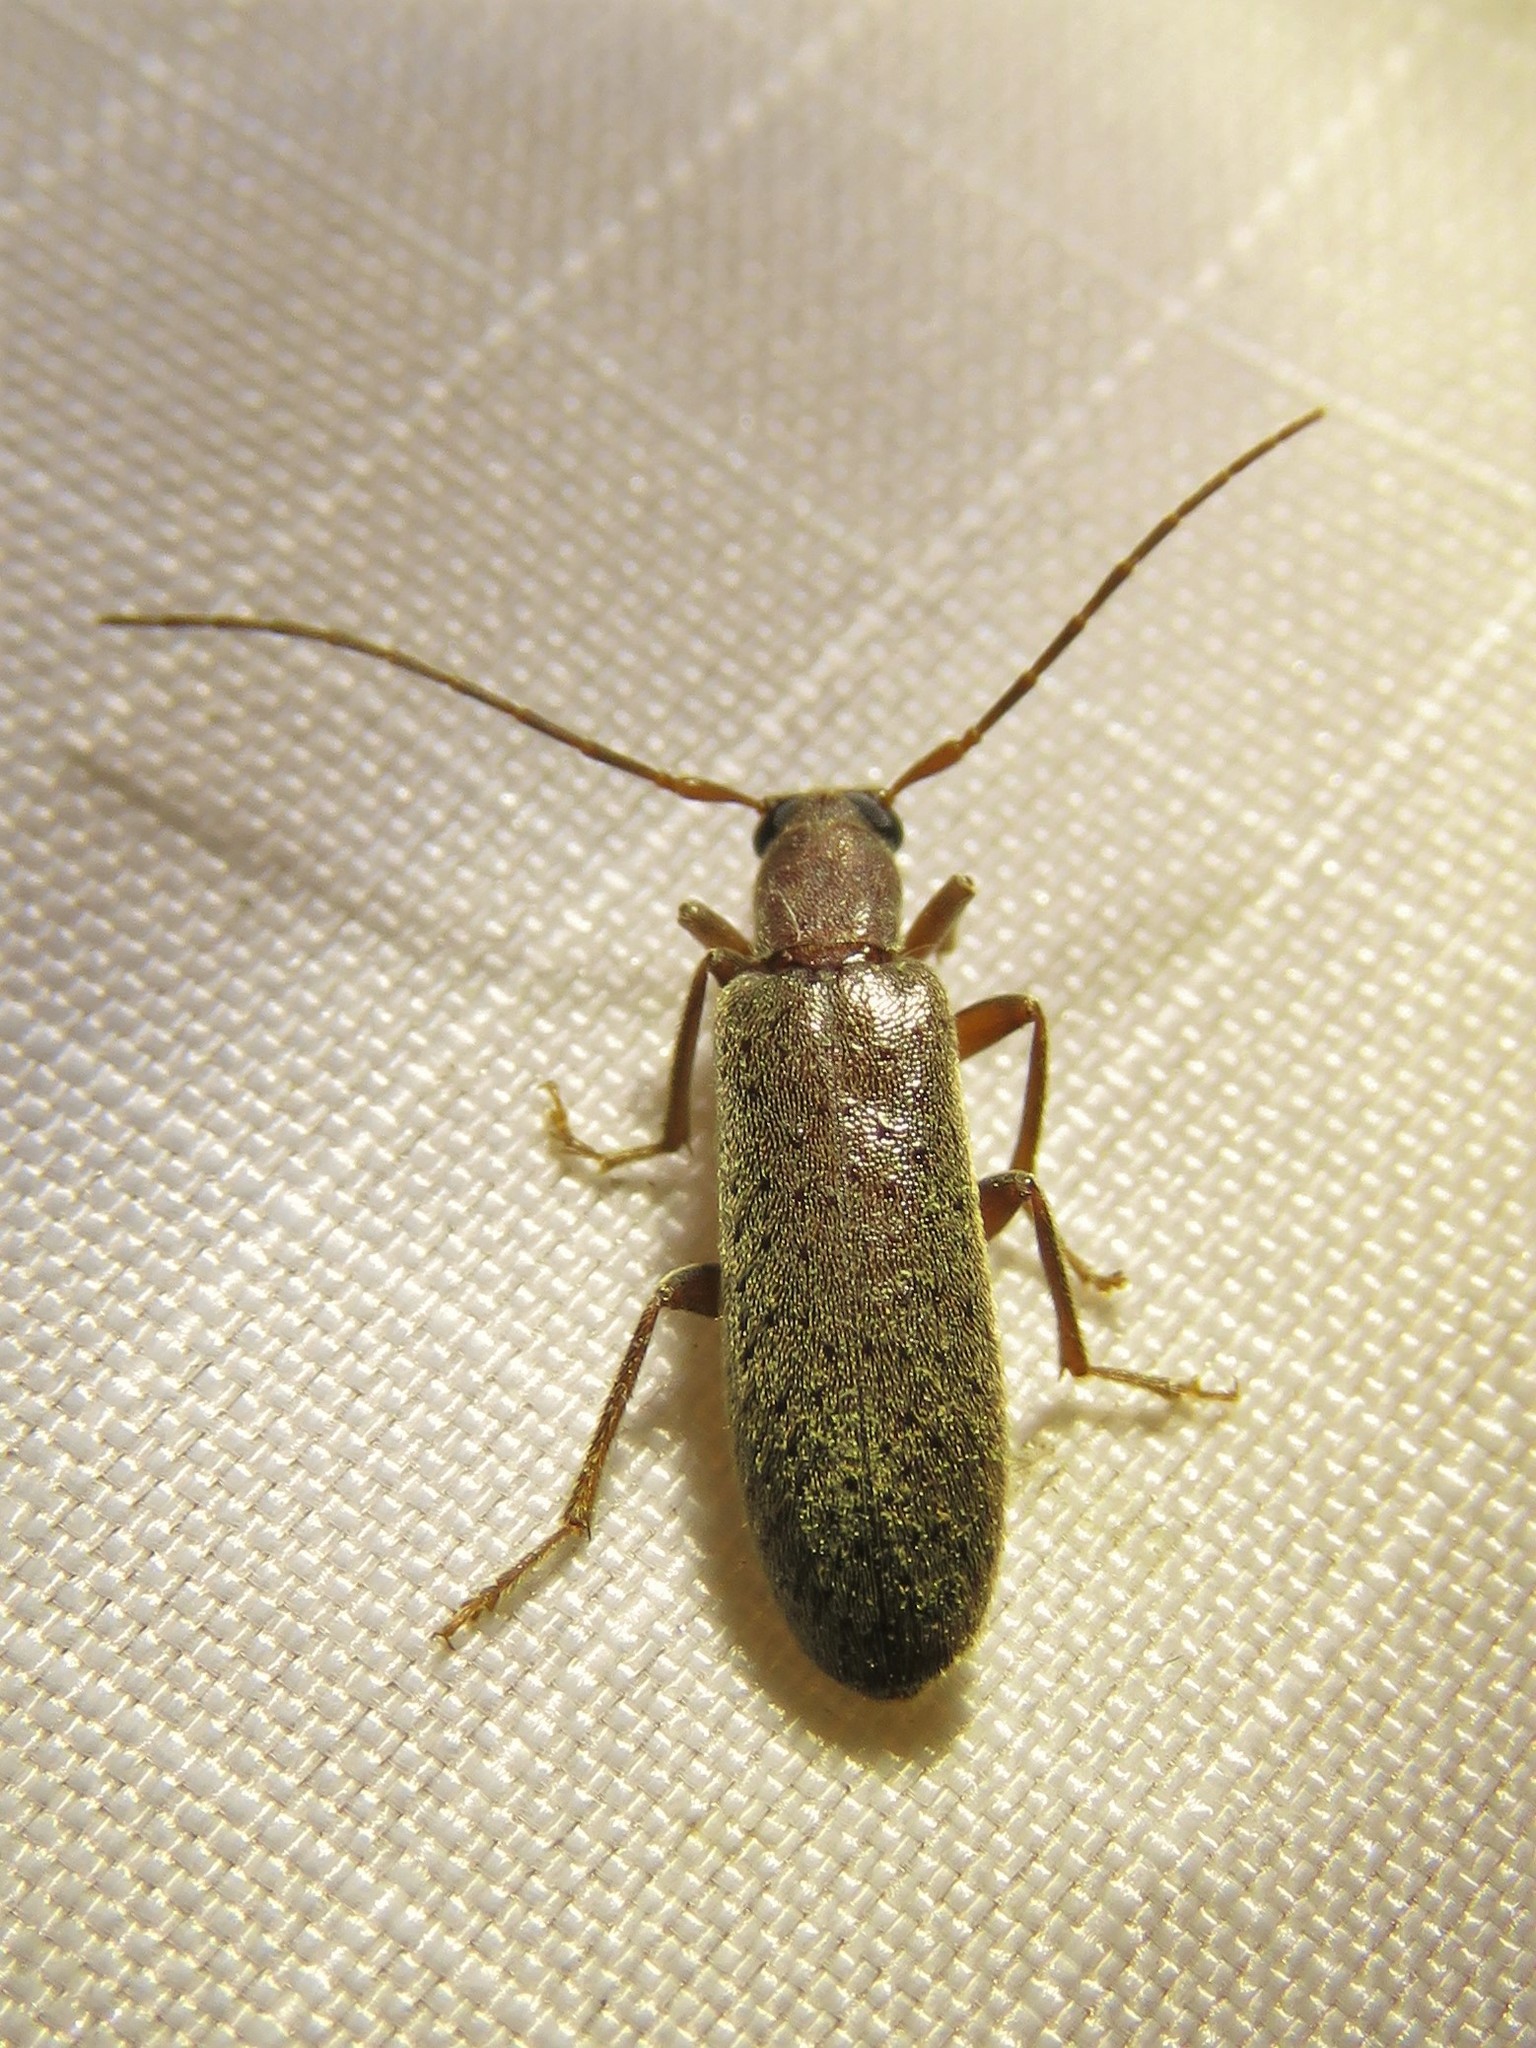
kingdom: Animalia
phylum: Arthropoda
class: Insecta
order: Coleoptera
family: Oedemeridae
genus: Sparedrus
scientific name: Sparedrus aspersus
